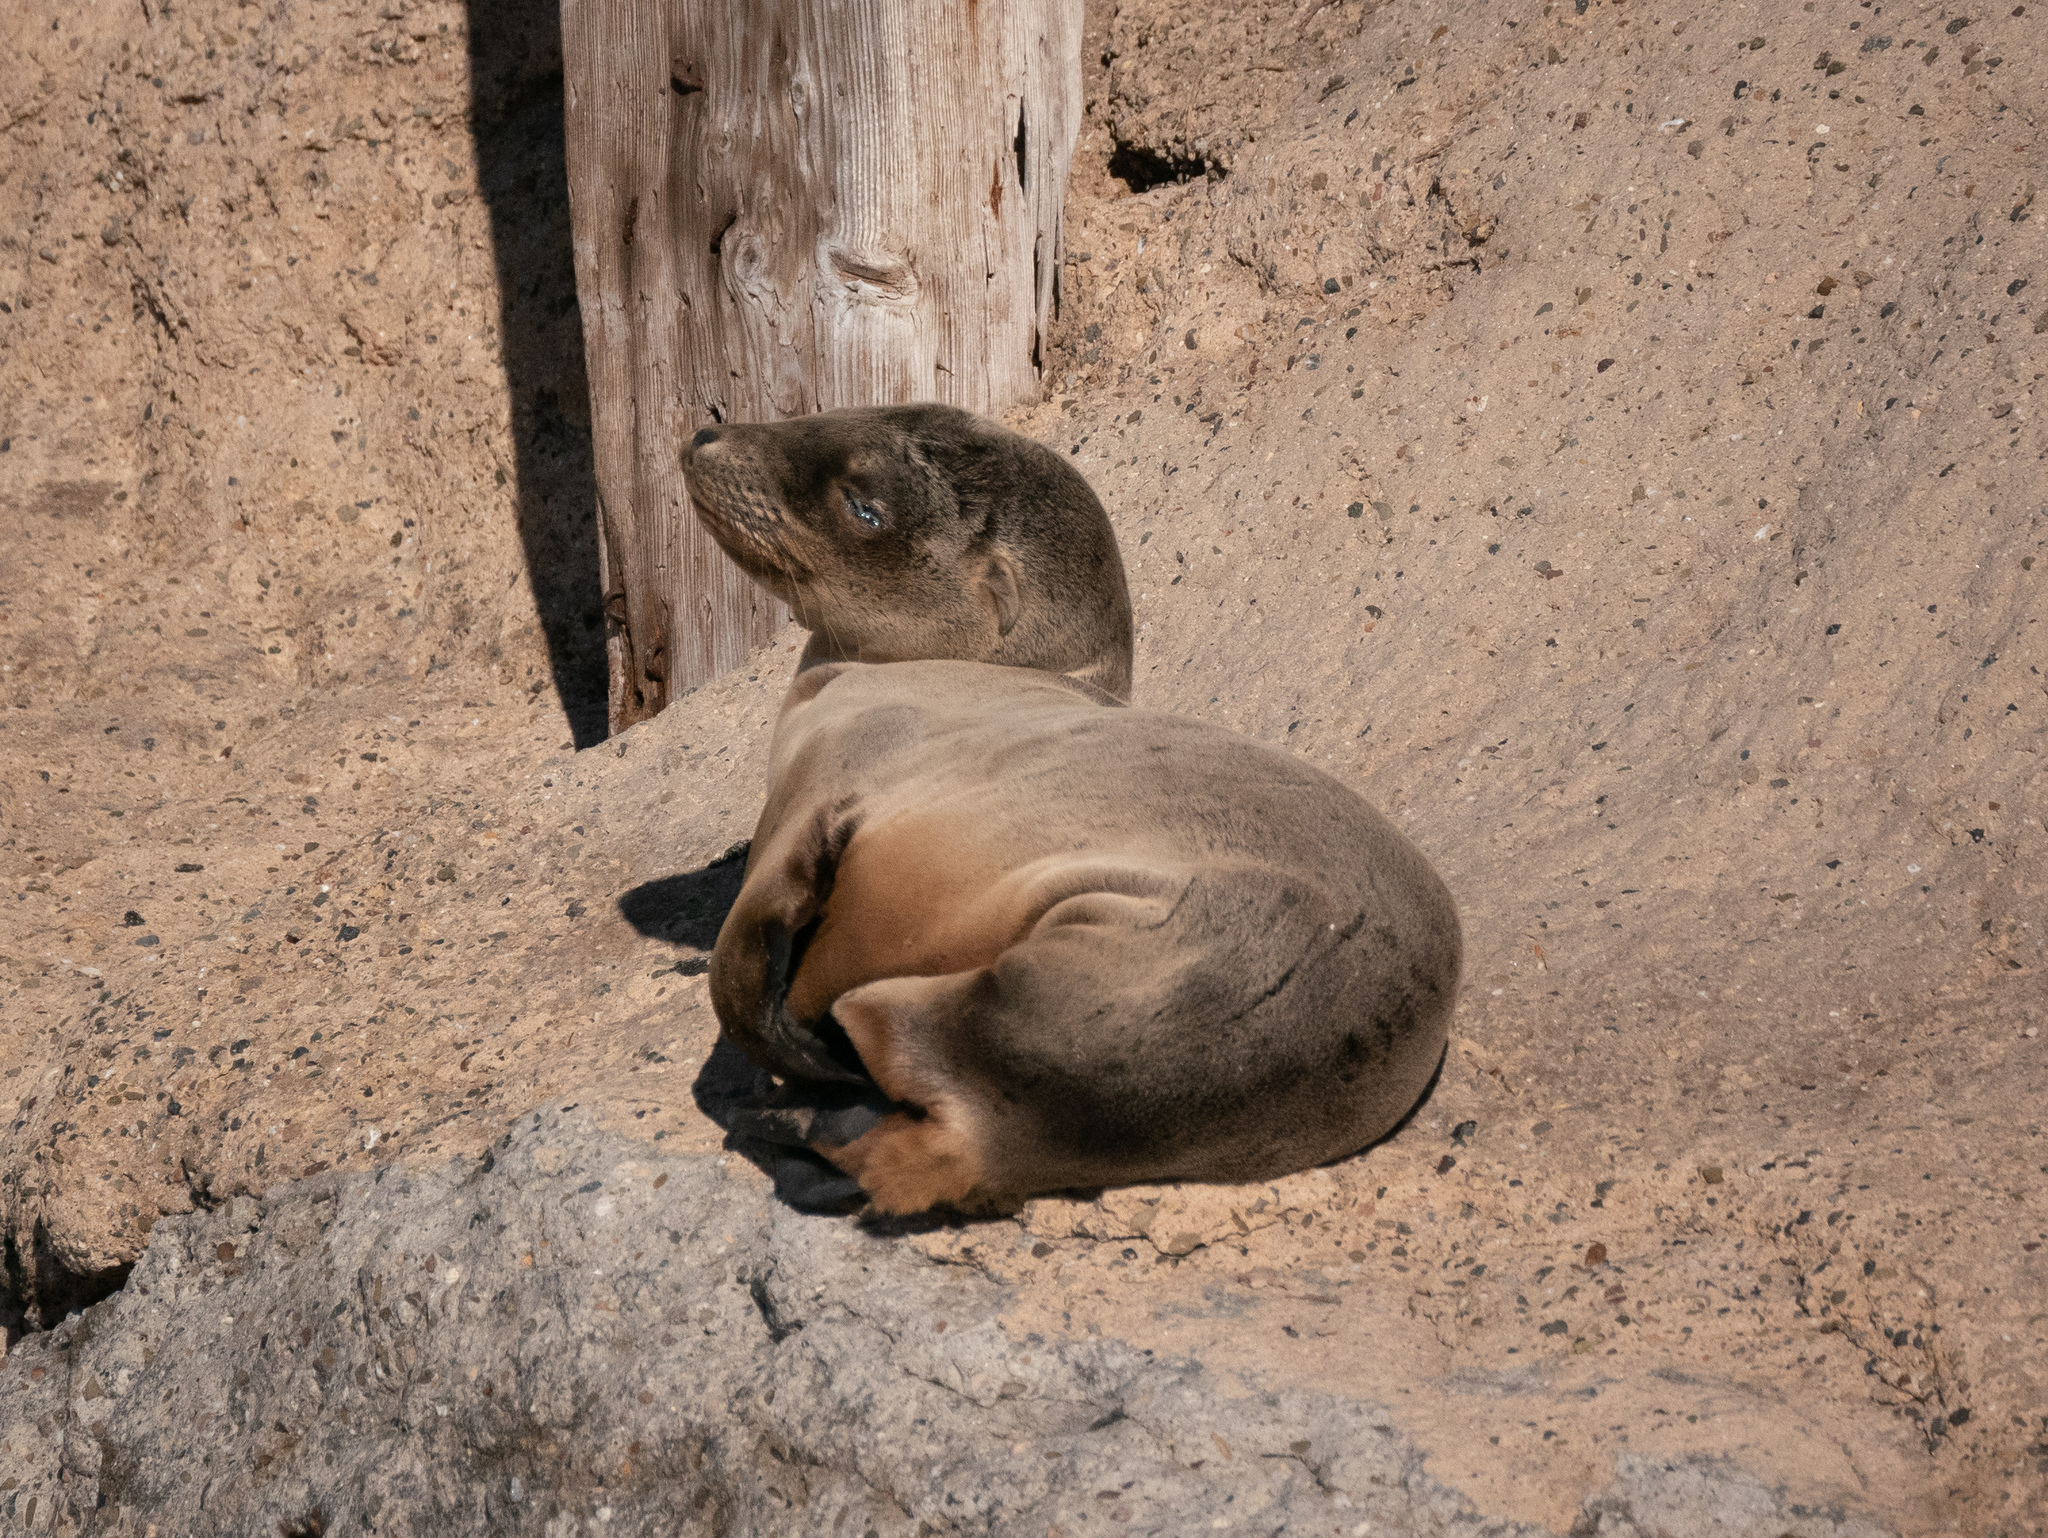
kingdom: Animalia
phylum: Chordata
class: Mammalia
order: Carnivora
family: Otariidae
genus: Zalophus
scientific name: Zalophus californianus
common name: California sea lion
